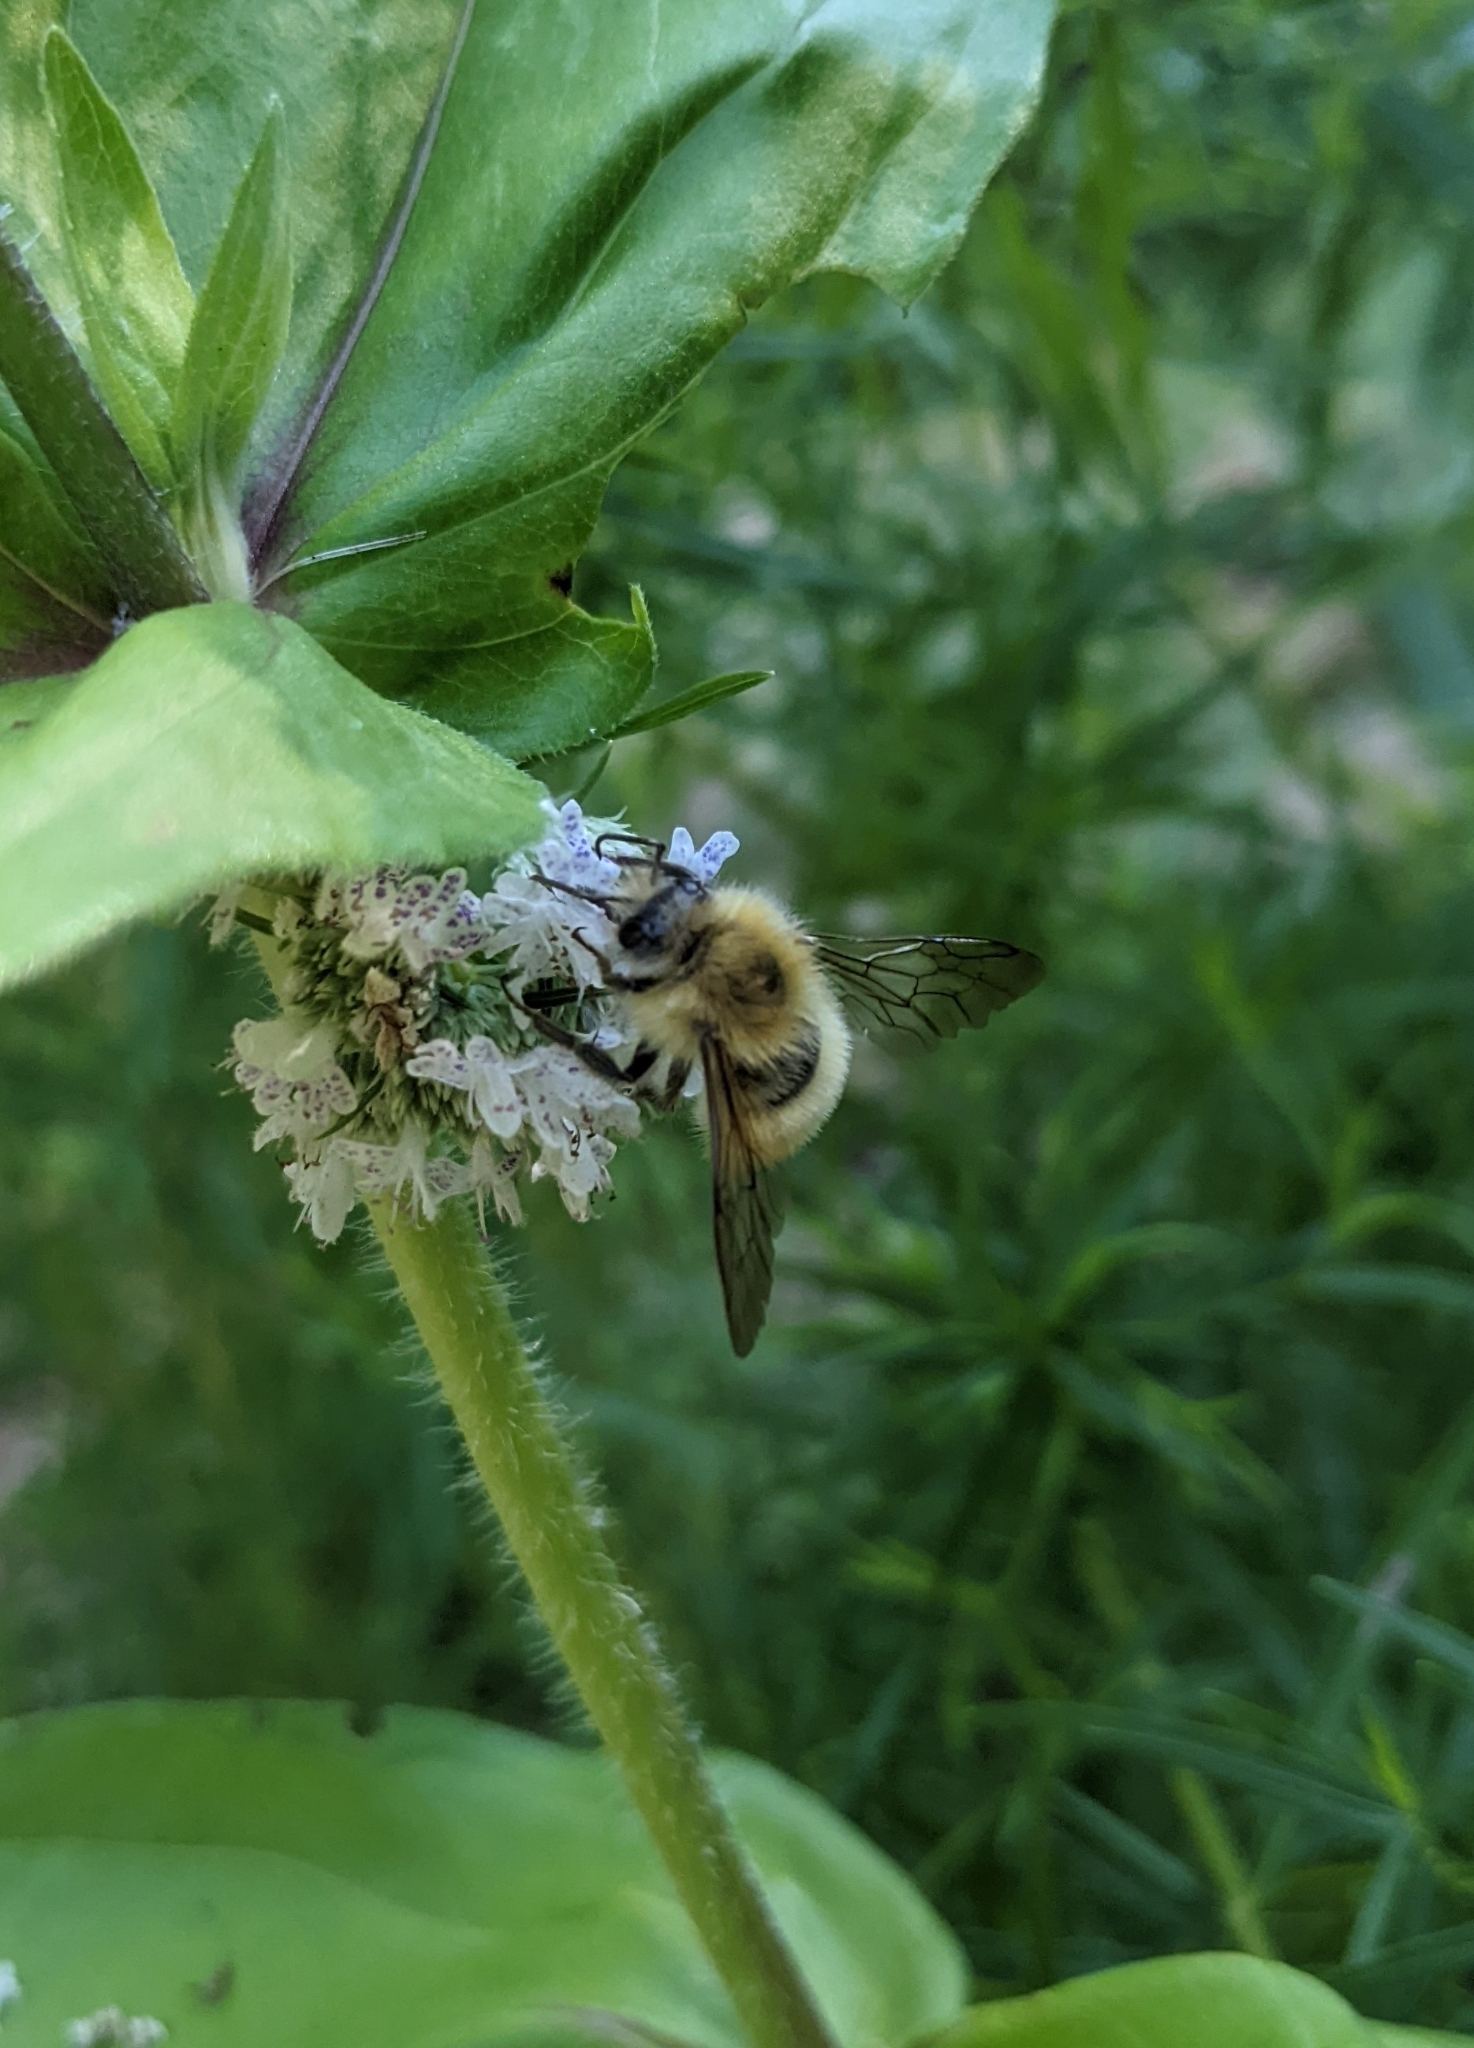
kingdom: Animalia
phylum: Arthropoda
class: Insecta
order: Hymenoptera
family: Apidae
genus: Bombus
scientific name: Bombus perplexus
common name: Confusing bumble bee
